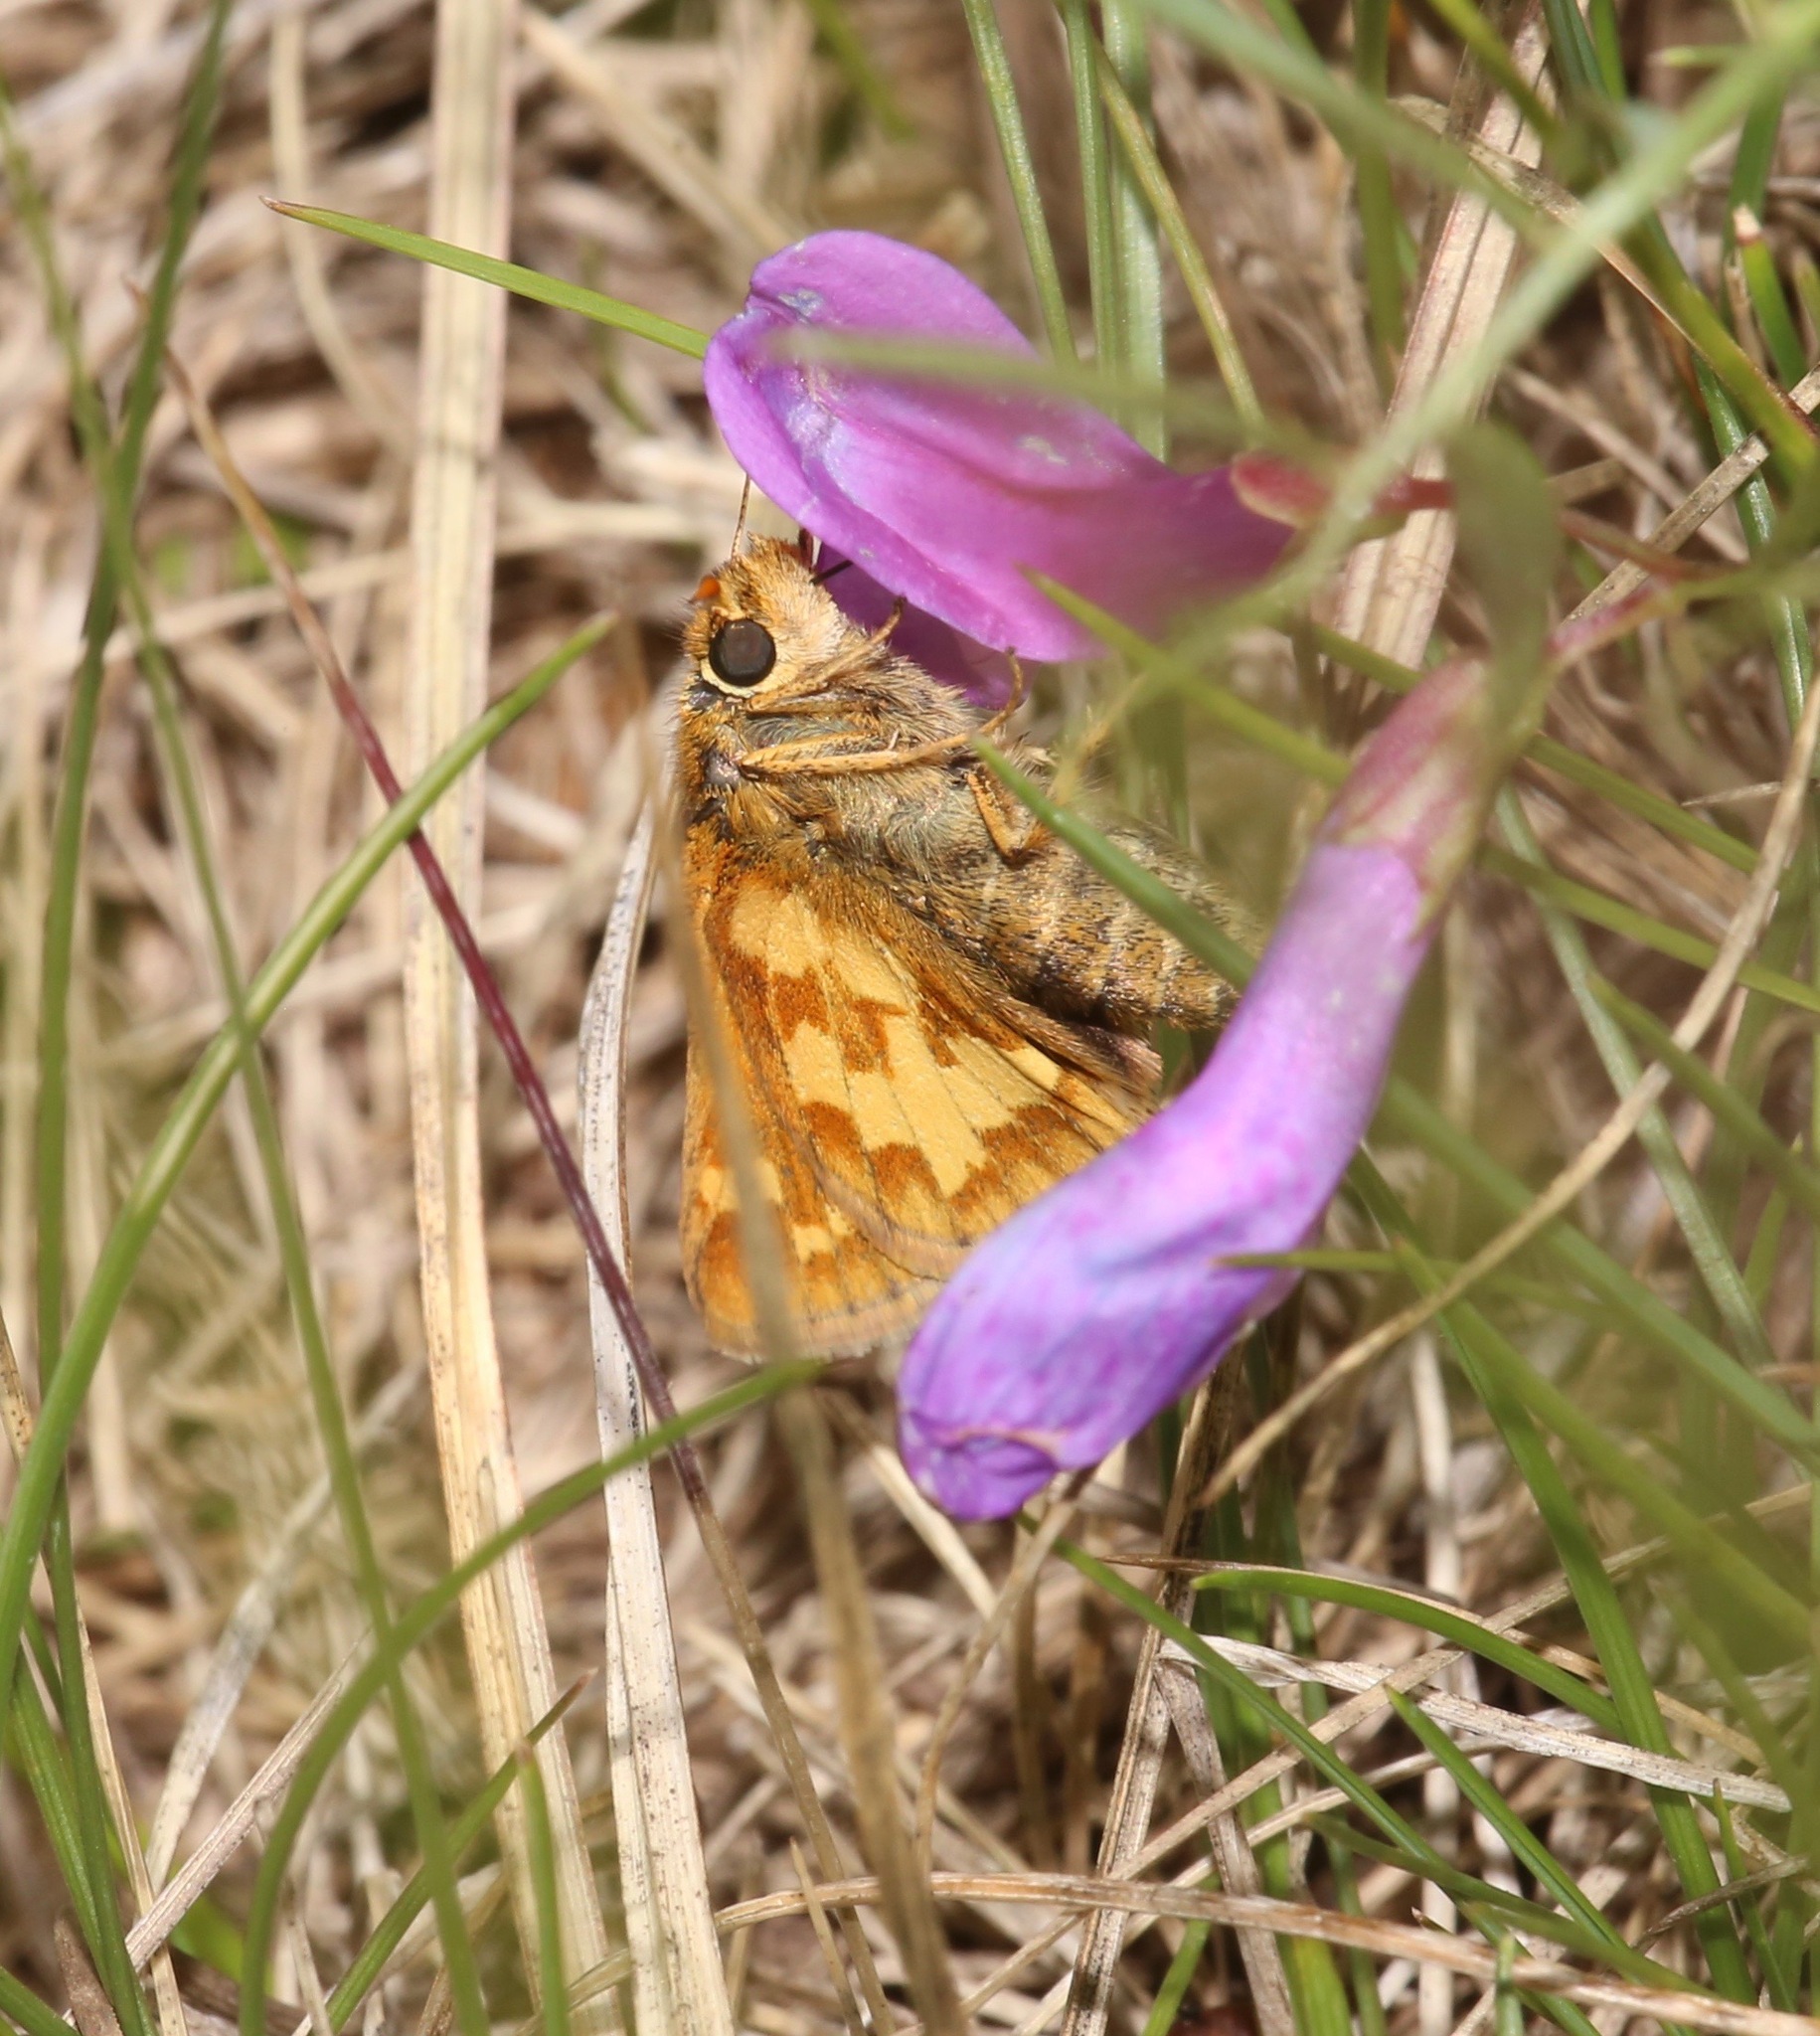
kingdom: Animalia
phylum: Arthropoda
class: Insecta
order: Lepidoptera
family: Hesperiidae
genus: Polites
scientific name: Polites coras
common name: Peck's skipper
